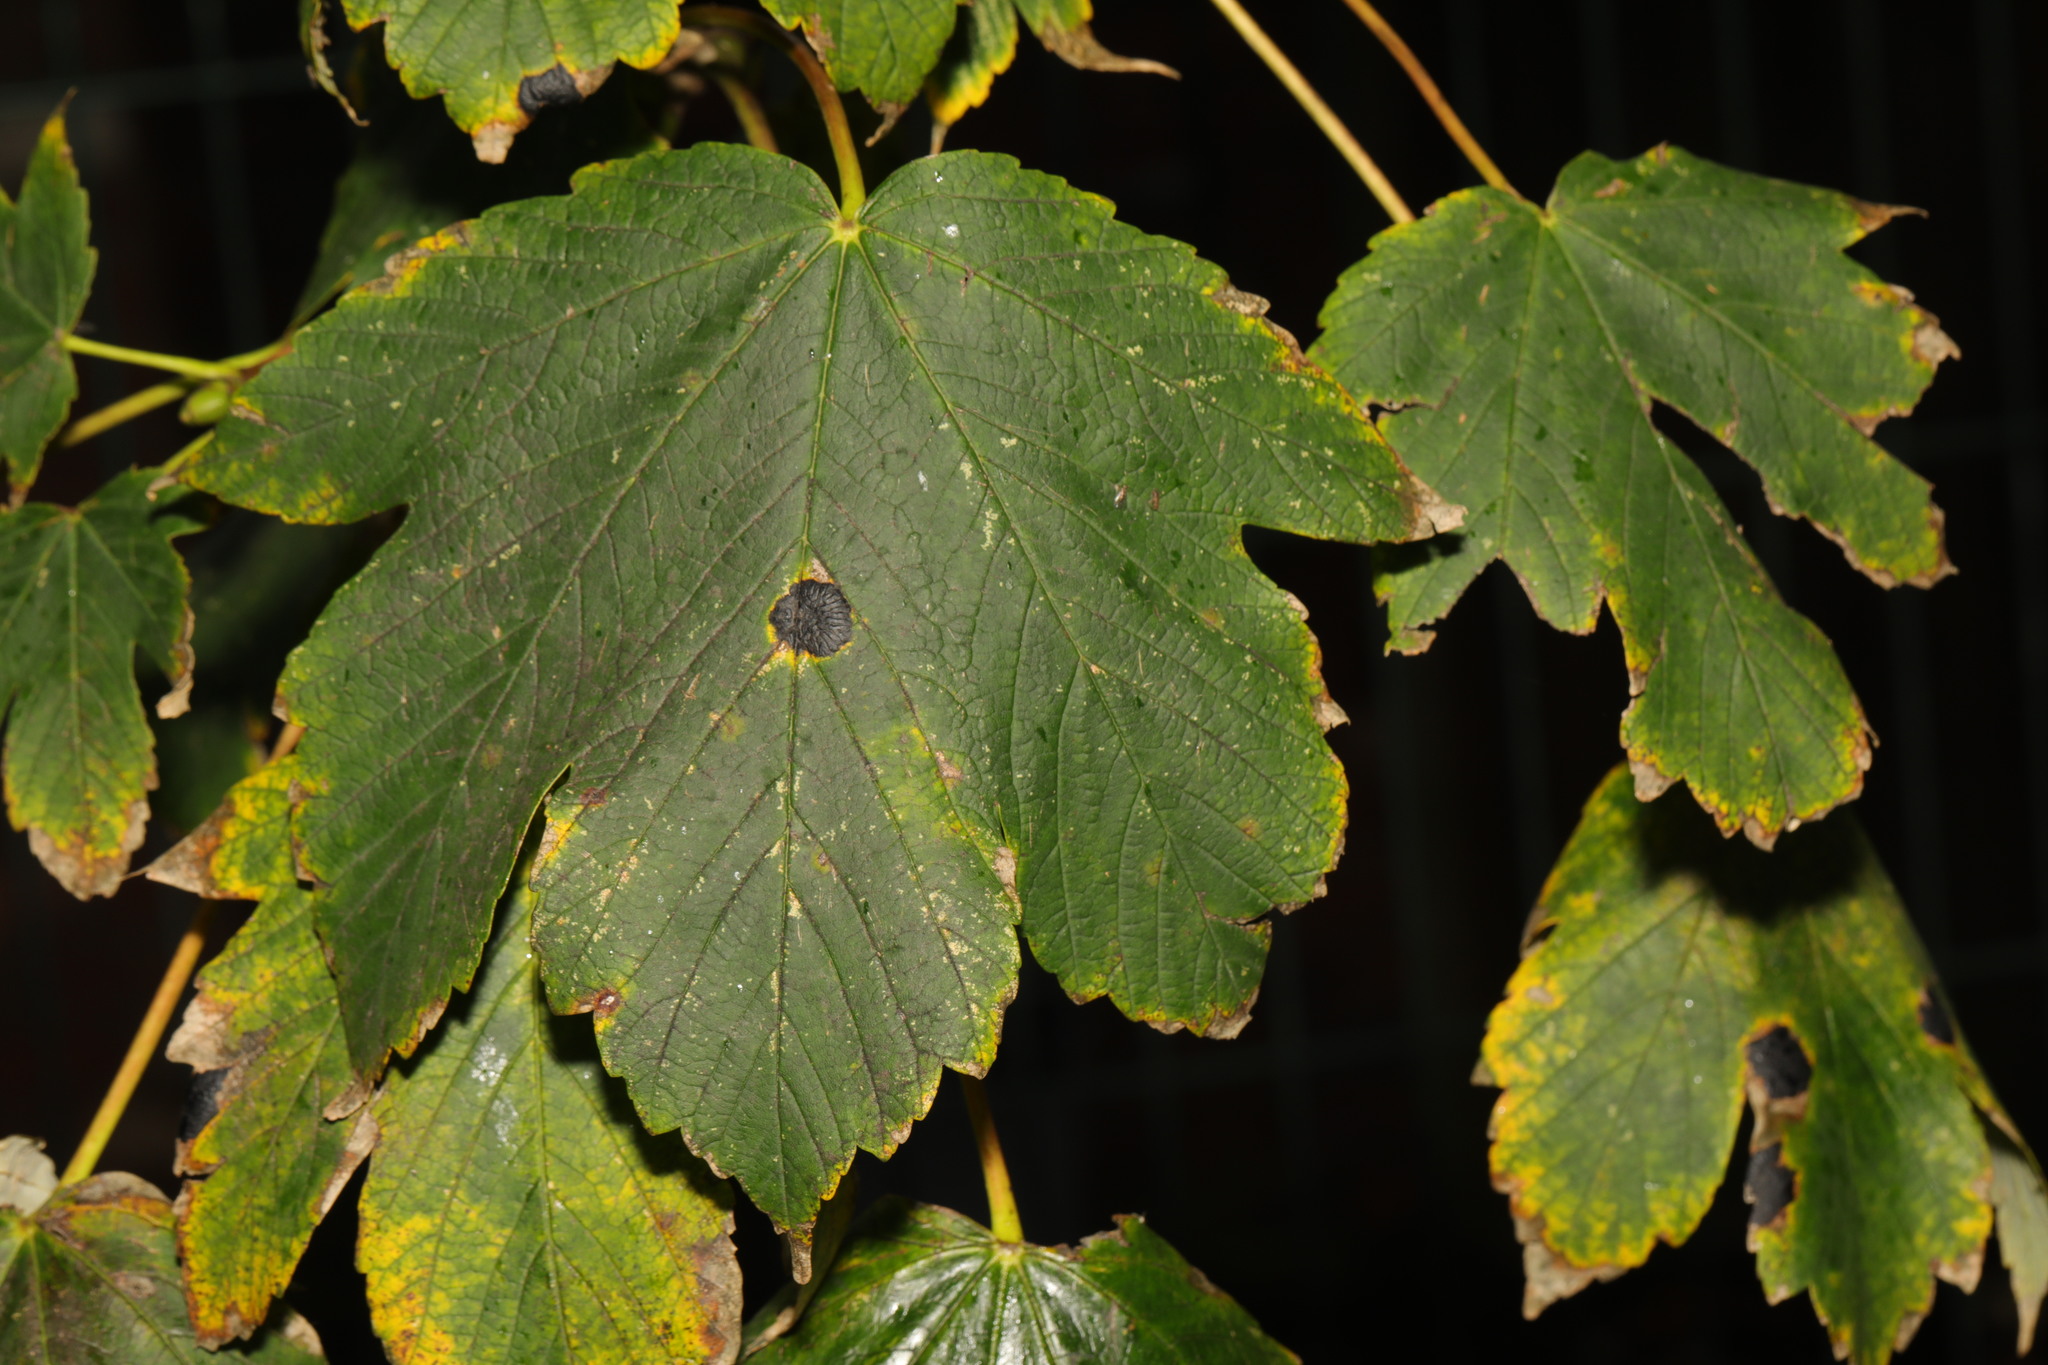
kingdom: Plantae
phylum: Tracheophyta
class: Magnoliopsida
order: Sapindales
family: Sapindaceae
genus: Acer
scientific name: Acer pseudoplatanus
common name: Sycamore
